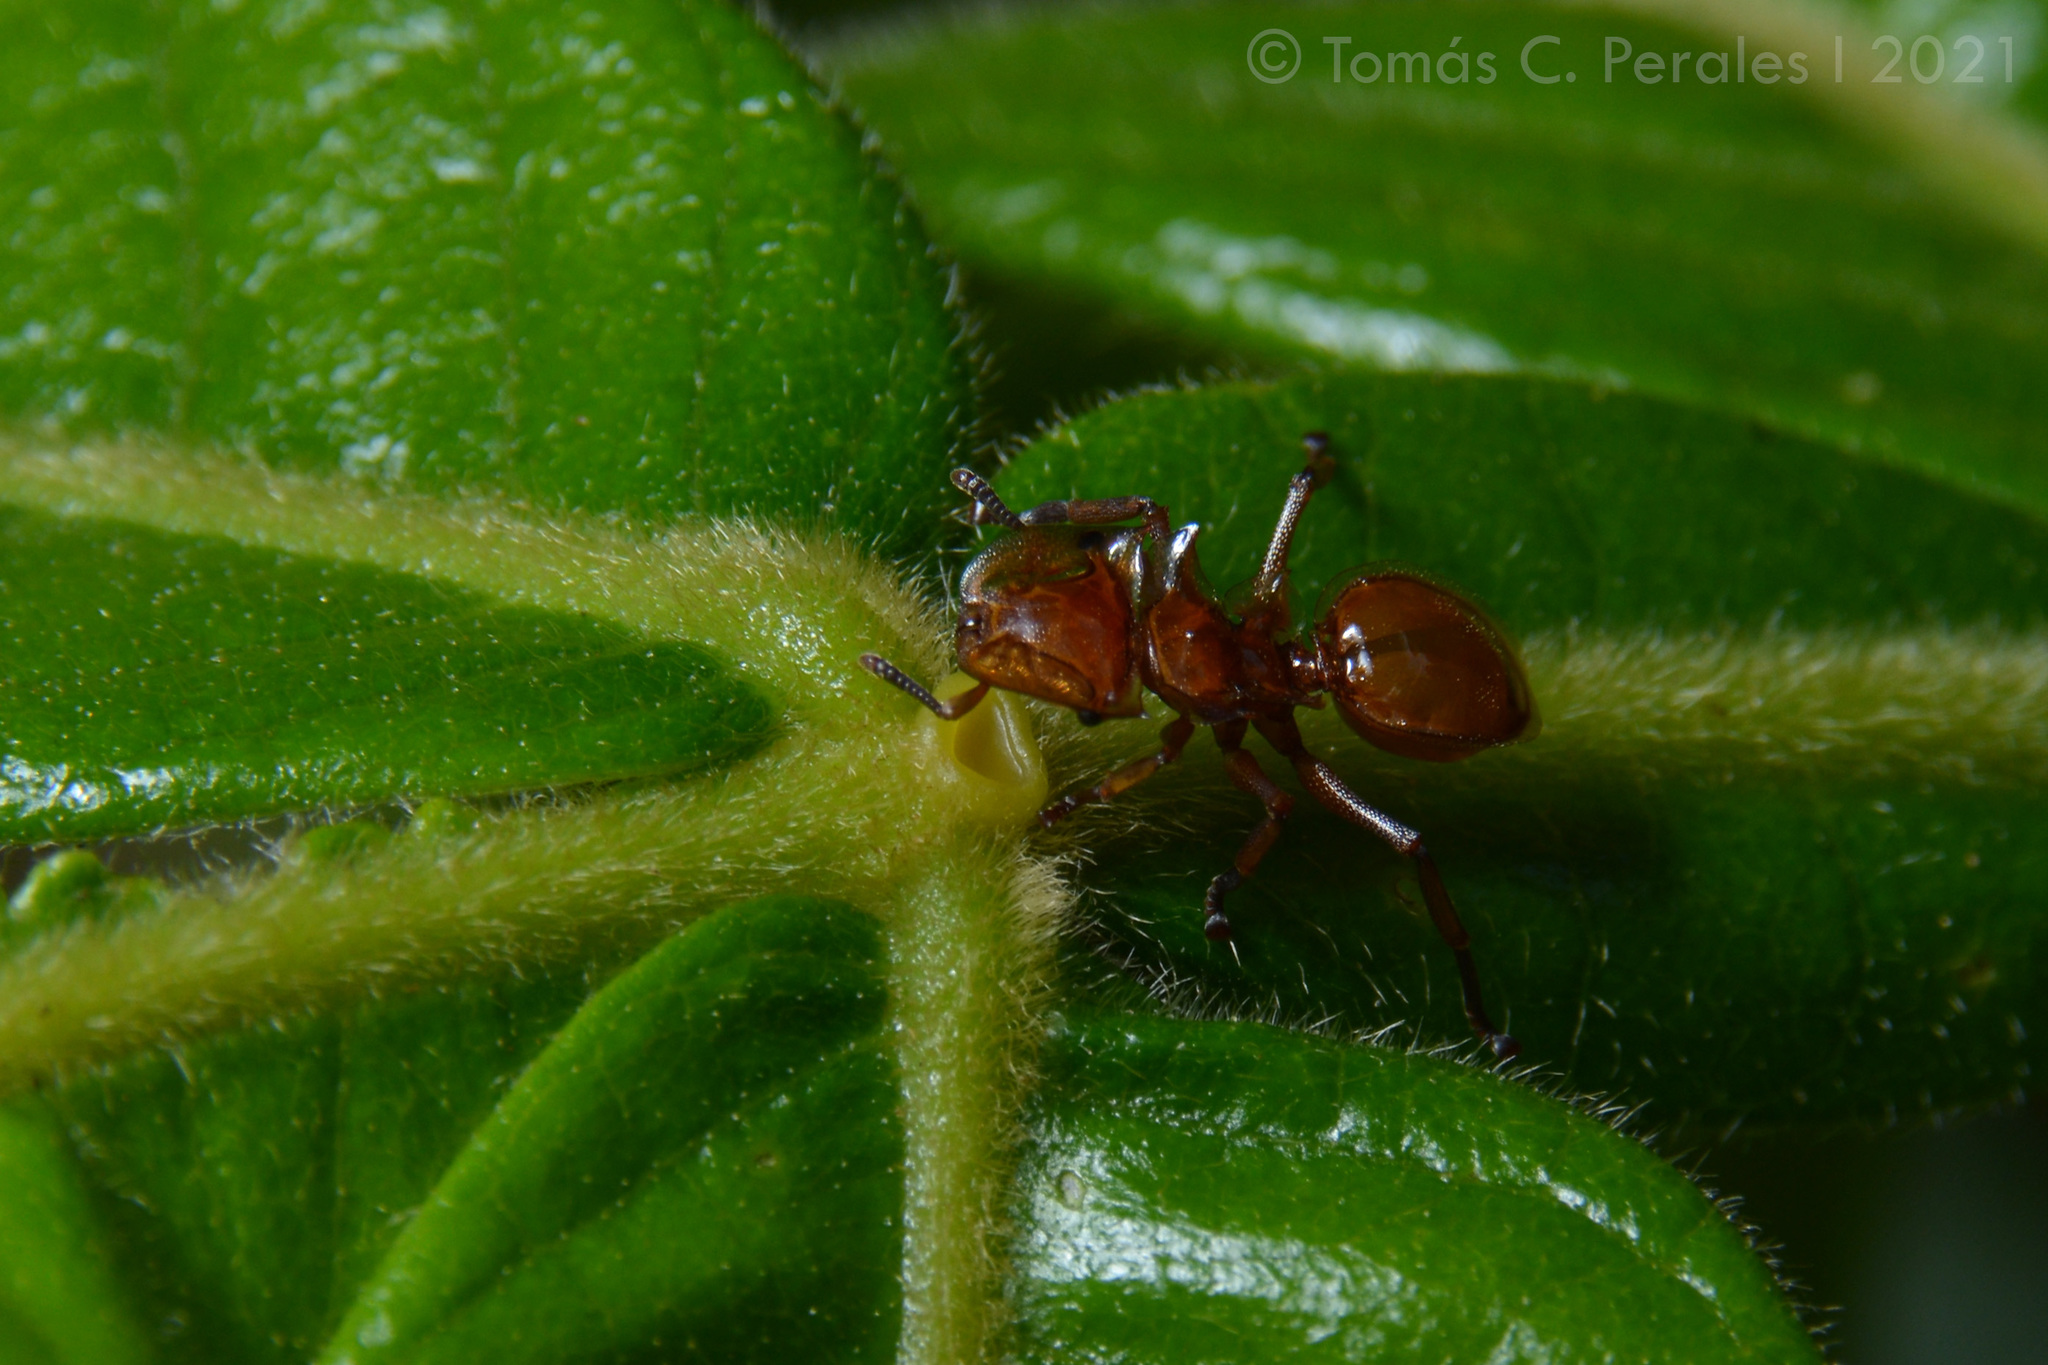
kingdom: Animalia
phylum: Arthropoda
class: Insecta
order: Hymenoptera
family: Formicidae
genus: Cephalotes
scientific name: Cephalotes clypeatus
